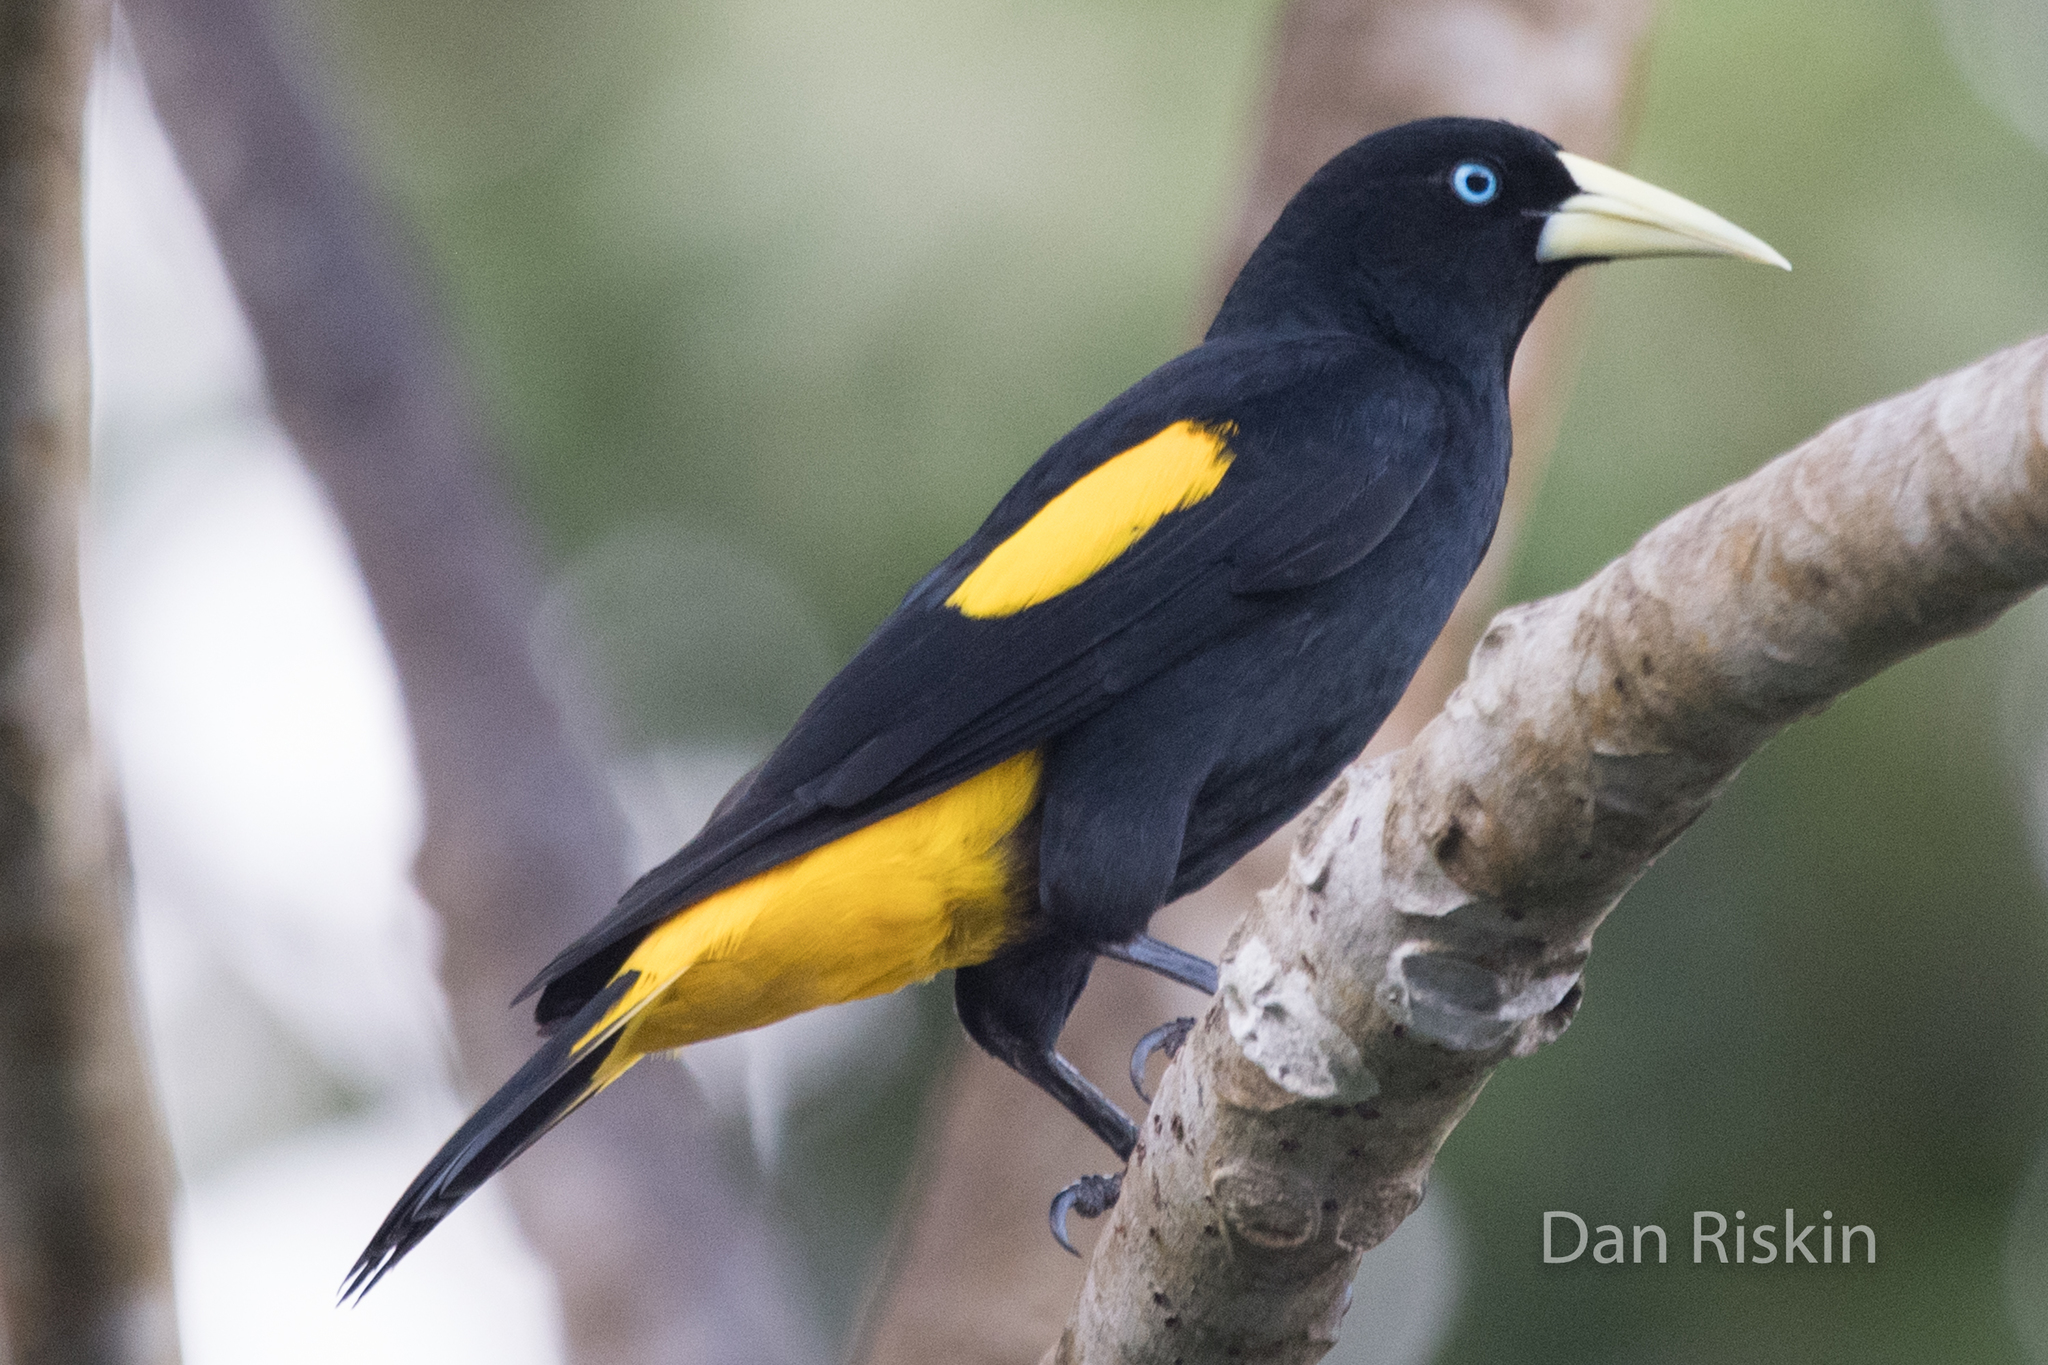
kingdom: Animalia
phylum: Chordata
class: Aves
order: Passeriformes
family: Icteridae
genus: Cacicus
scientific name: Cacicus cela
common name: Yellow-rumped cacique
